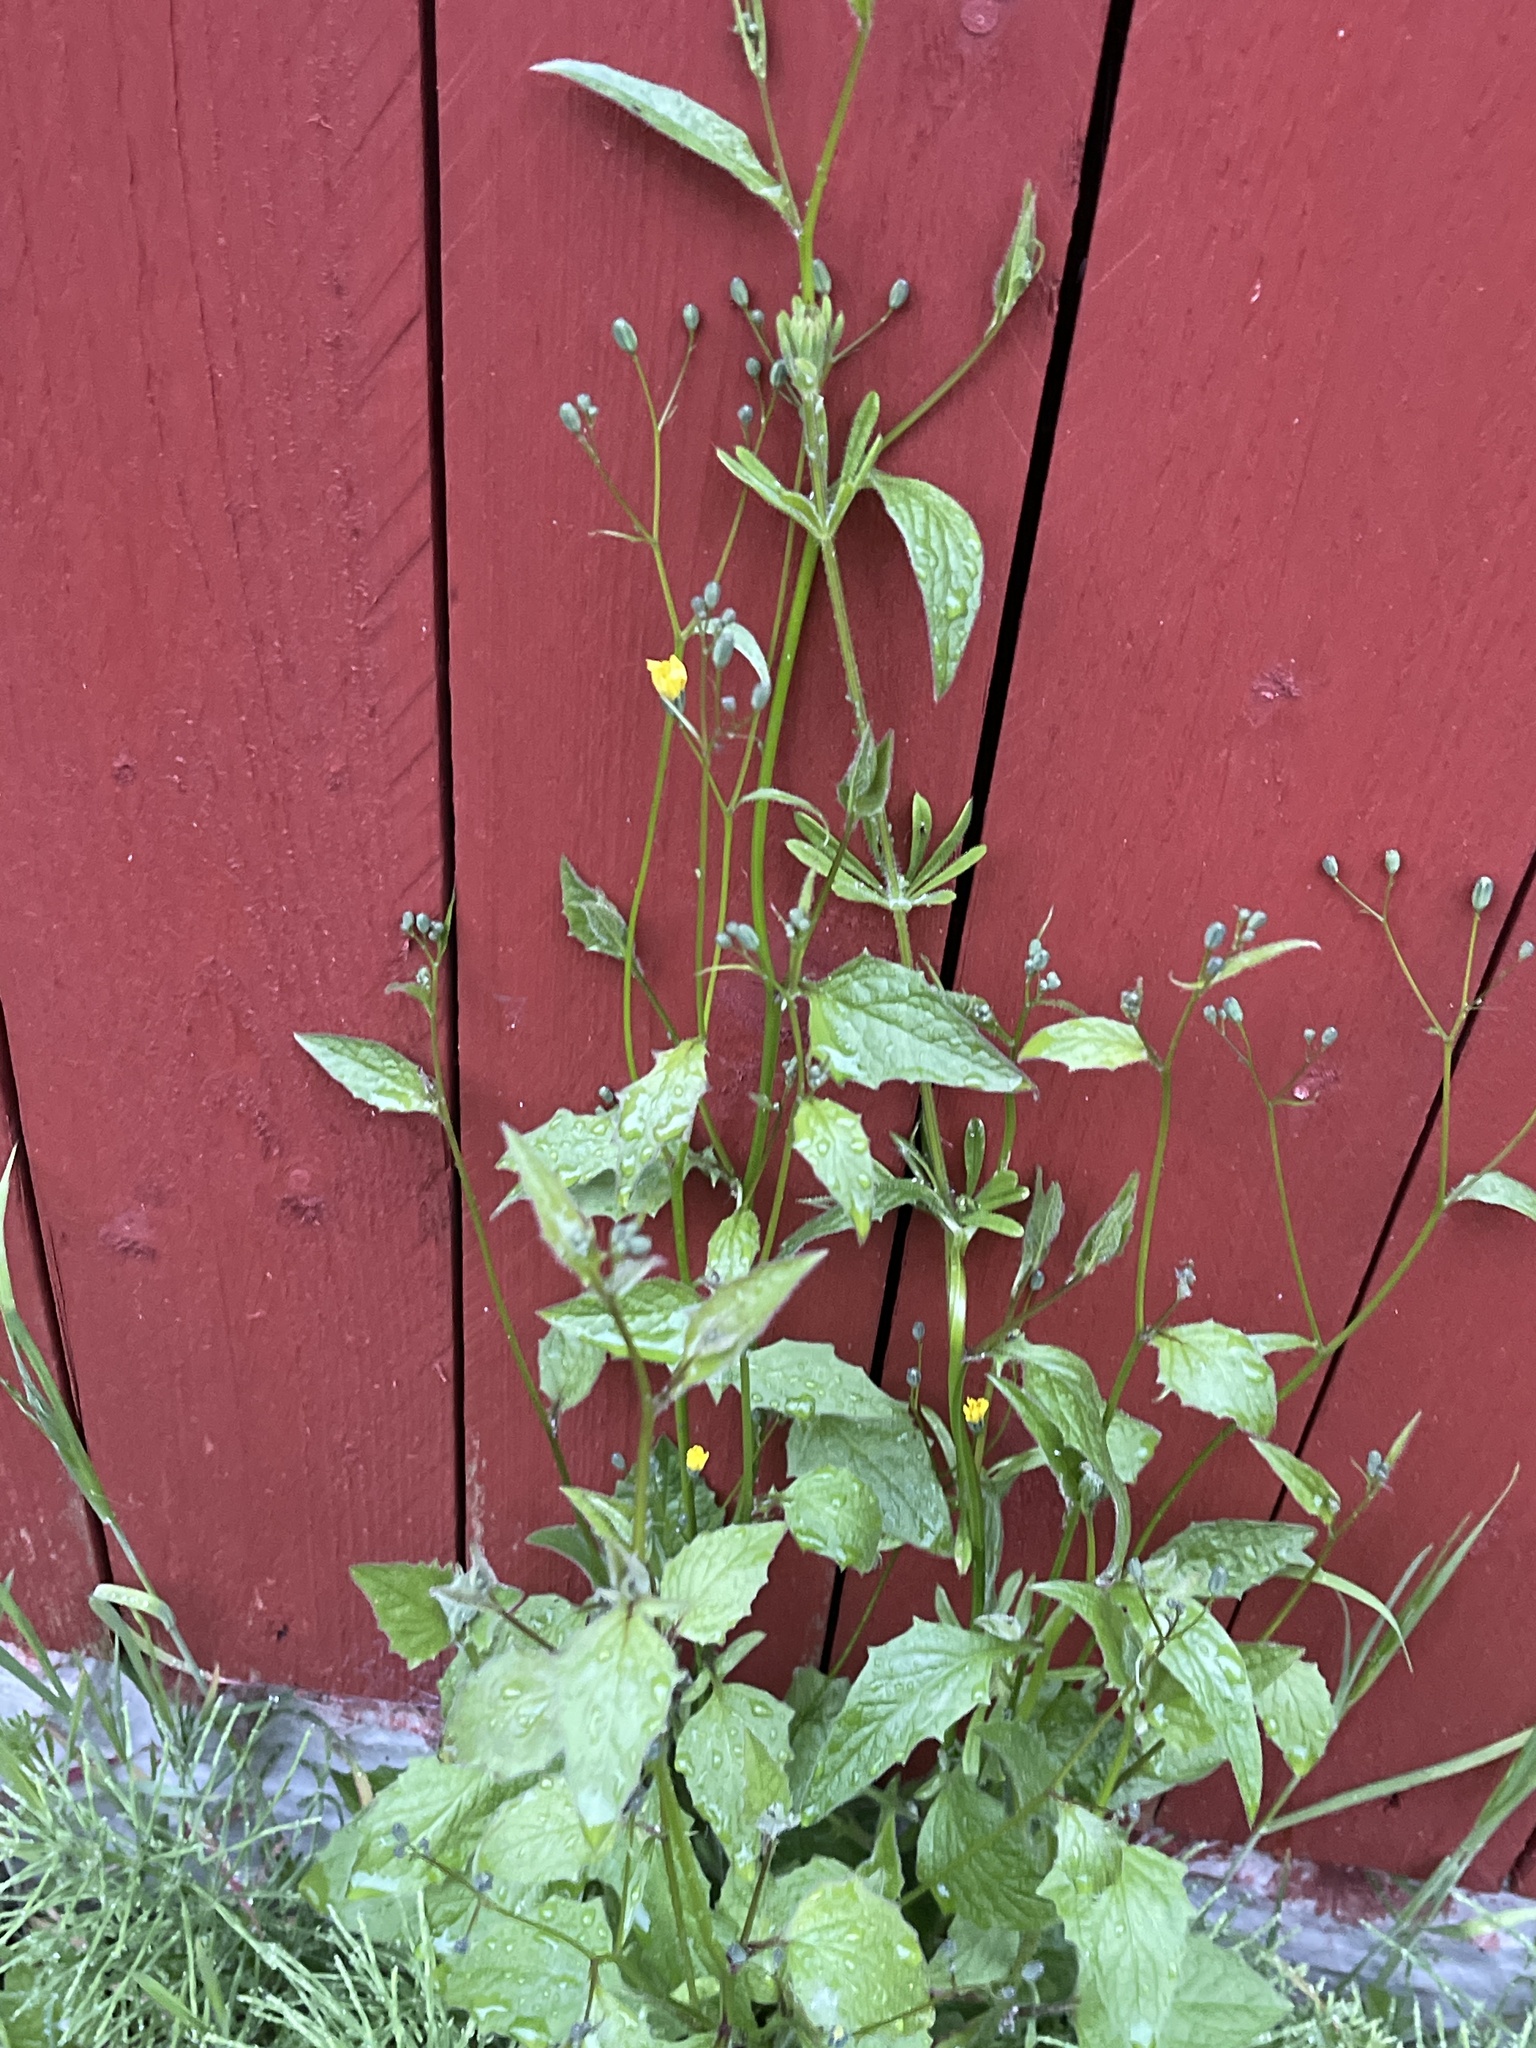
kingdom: Plantae
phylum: Tracheophyta
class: Magnoliopsida
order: Asterales
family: Asteraceae
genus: Lapsana
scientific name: Lapsana communis
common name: Nipplewort
